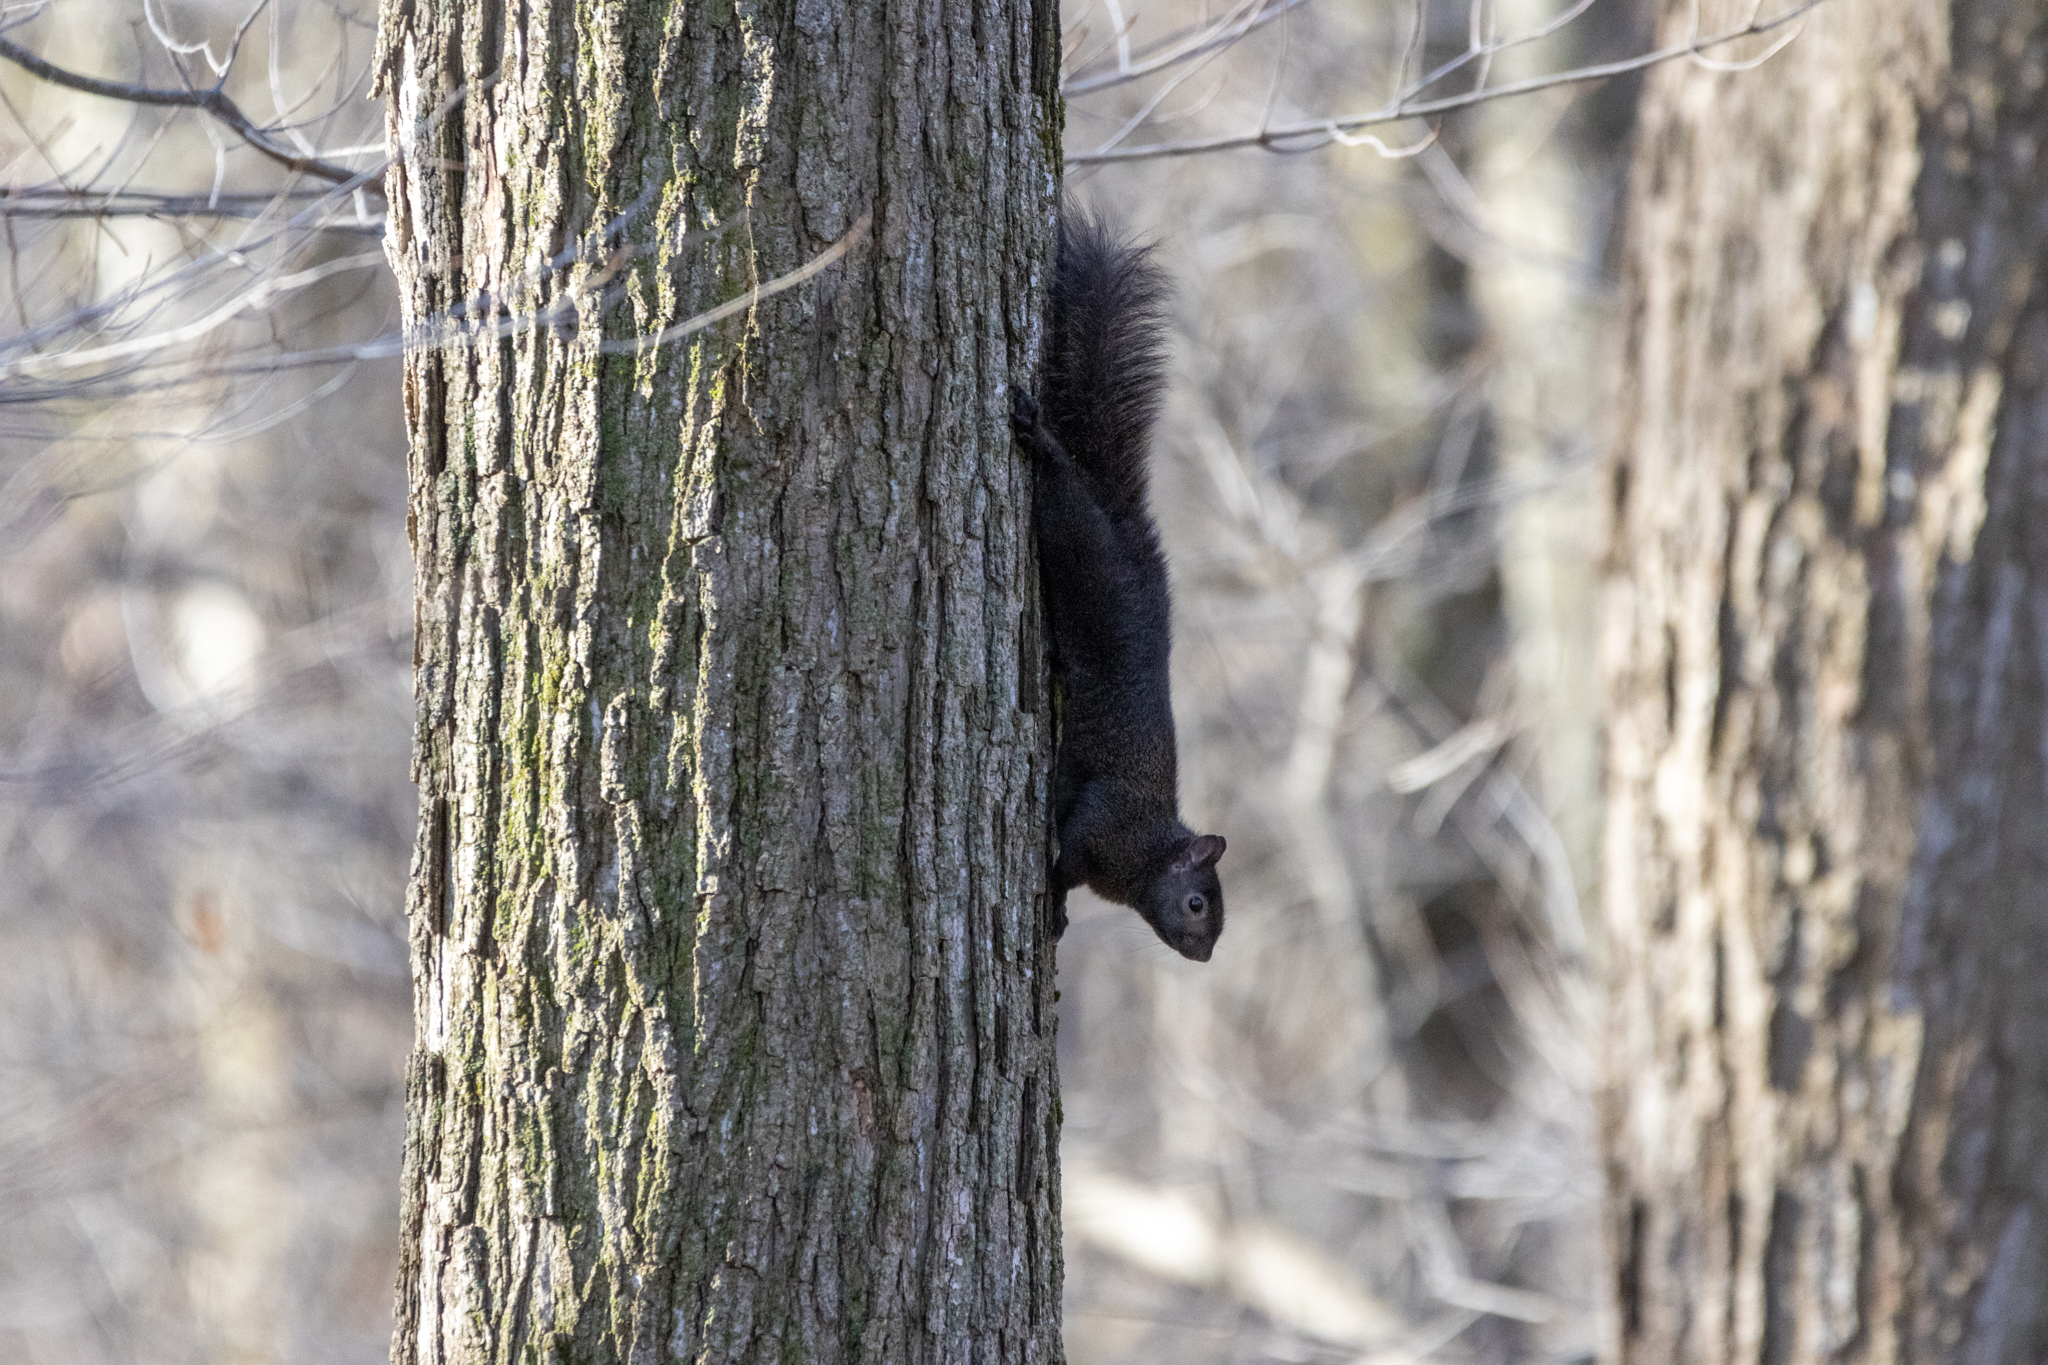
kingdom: Animalia
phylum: Chordata
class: Mammalia
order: Rodentia
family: Sciuridae
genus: Sciurus
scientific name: Sciurus carolinensis
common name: Eastern gray squirrel
